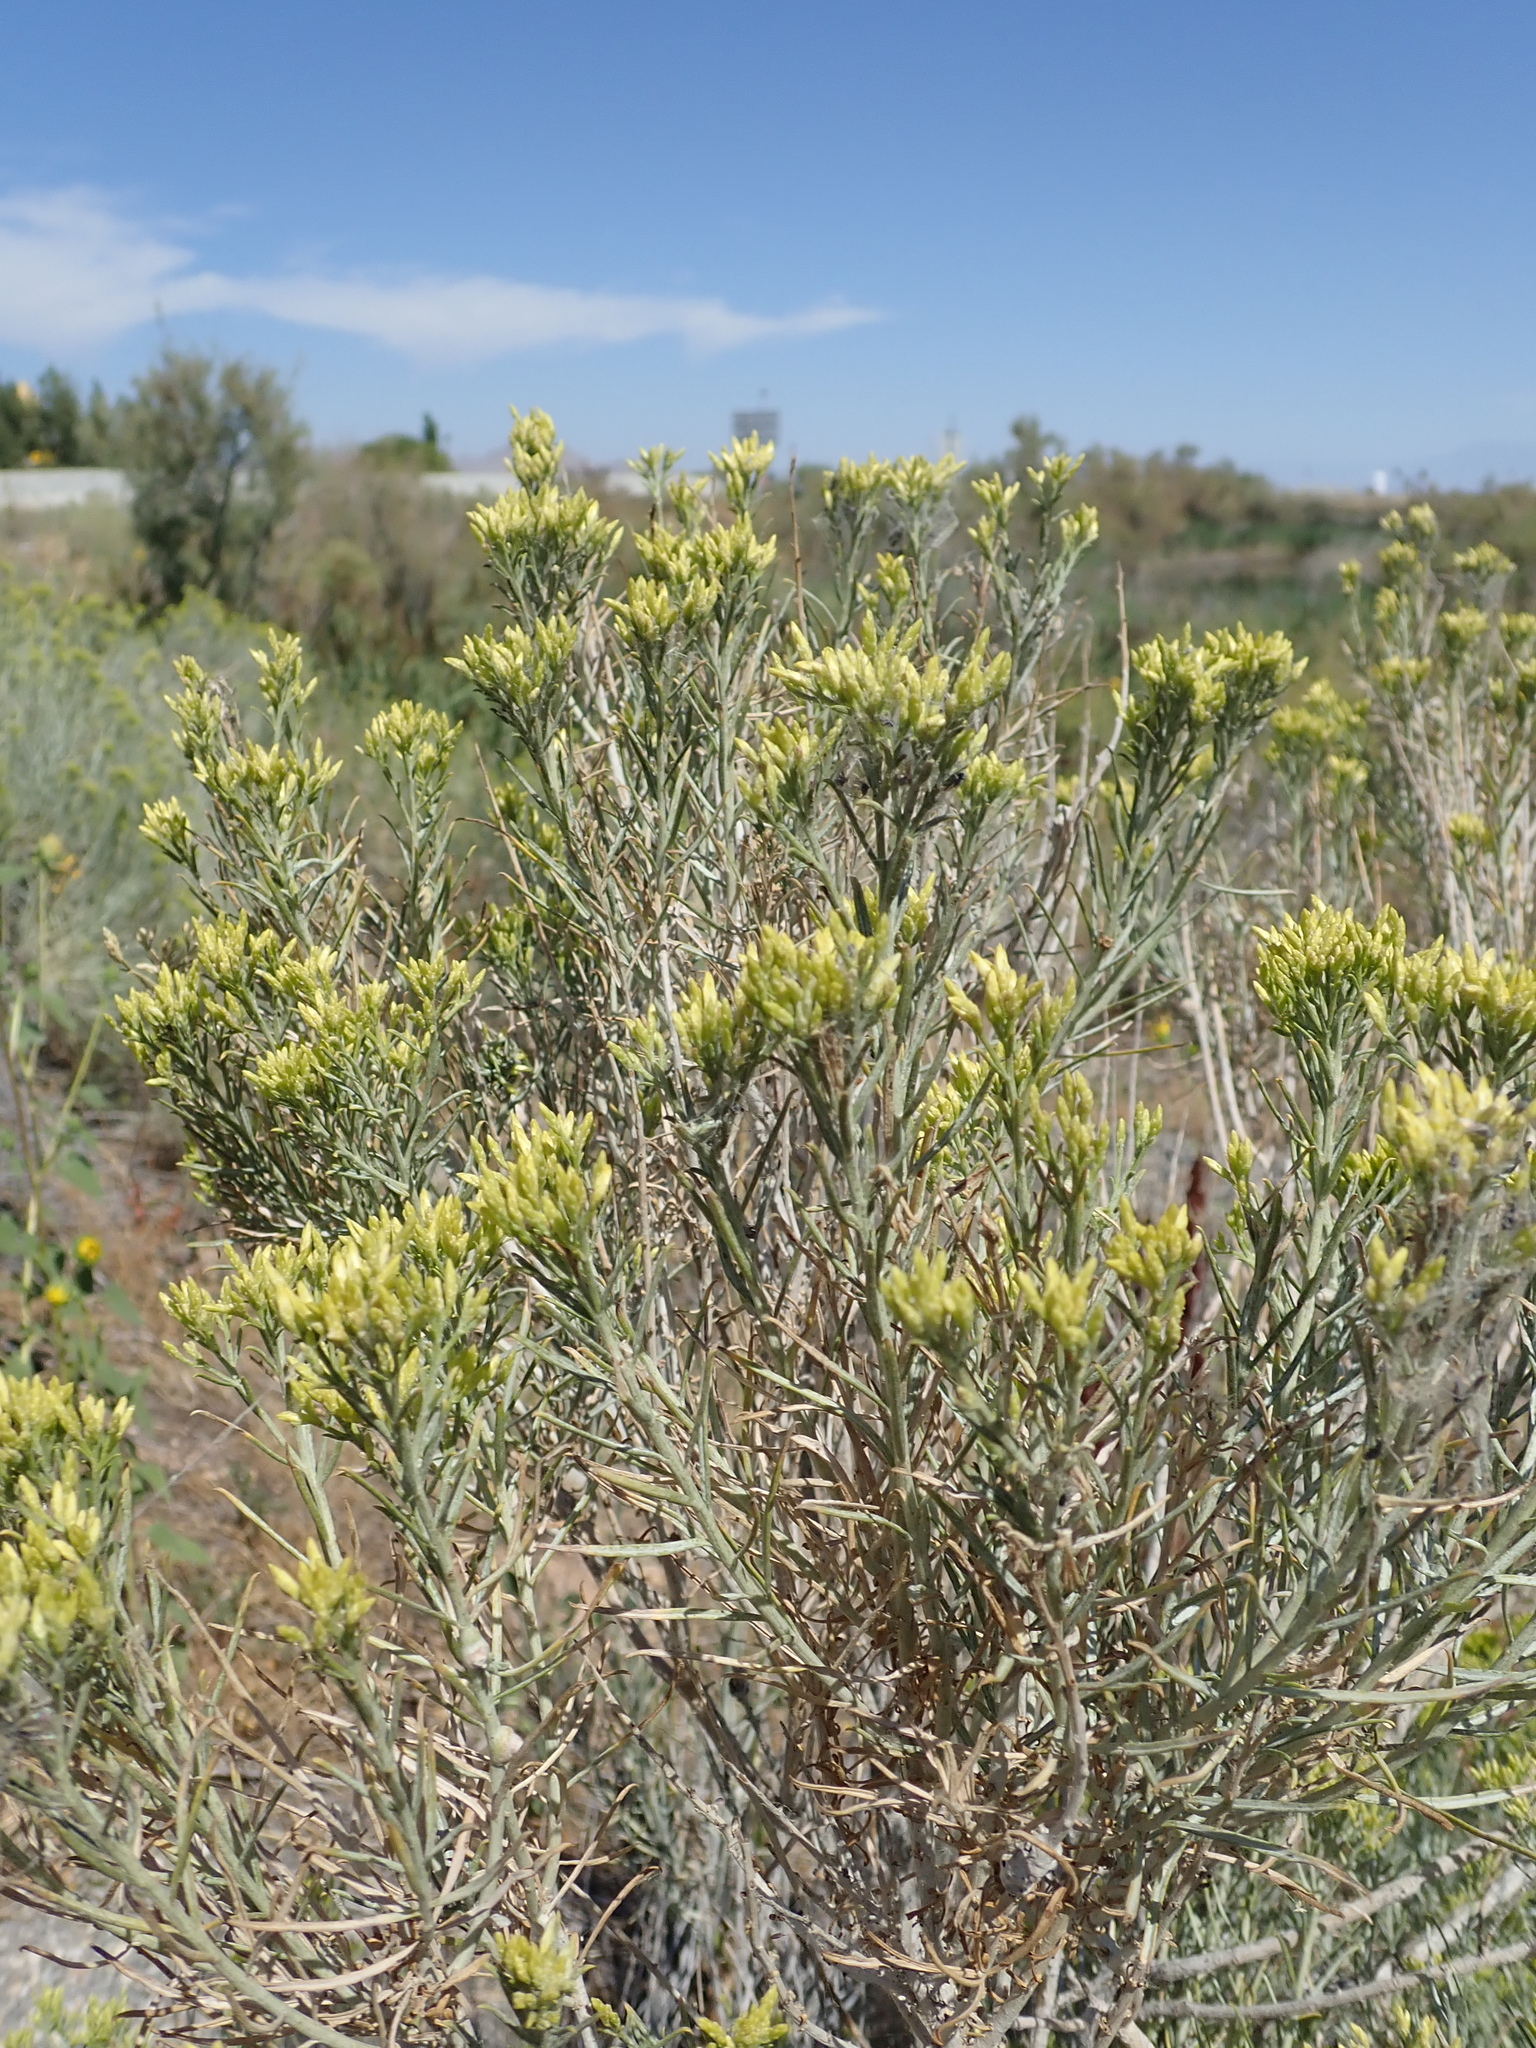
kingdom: Plantae
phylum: Tracheophyta
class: Magnoliopsida
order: Asterales
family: Asteraceae
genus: Ericameria
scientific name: Ericameria nauseosa
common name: Rubber rabbitbrush
